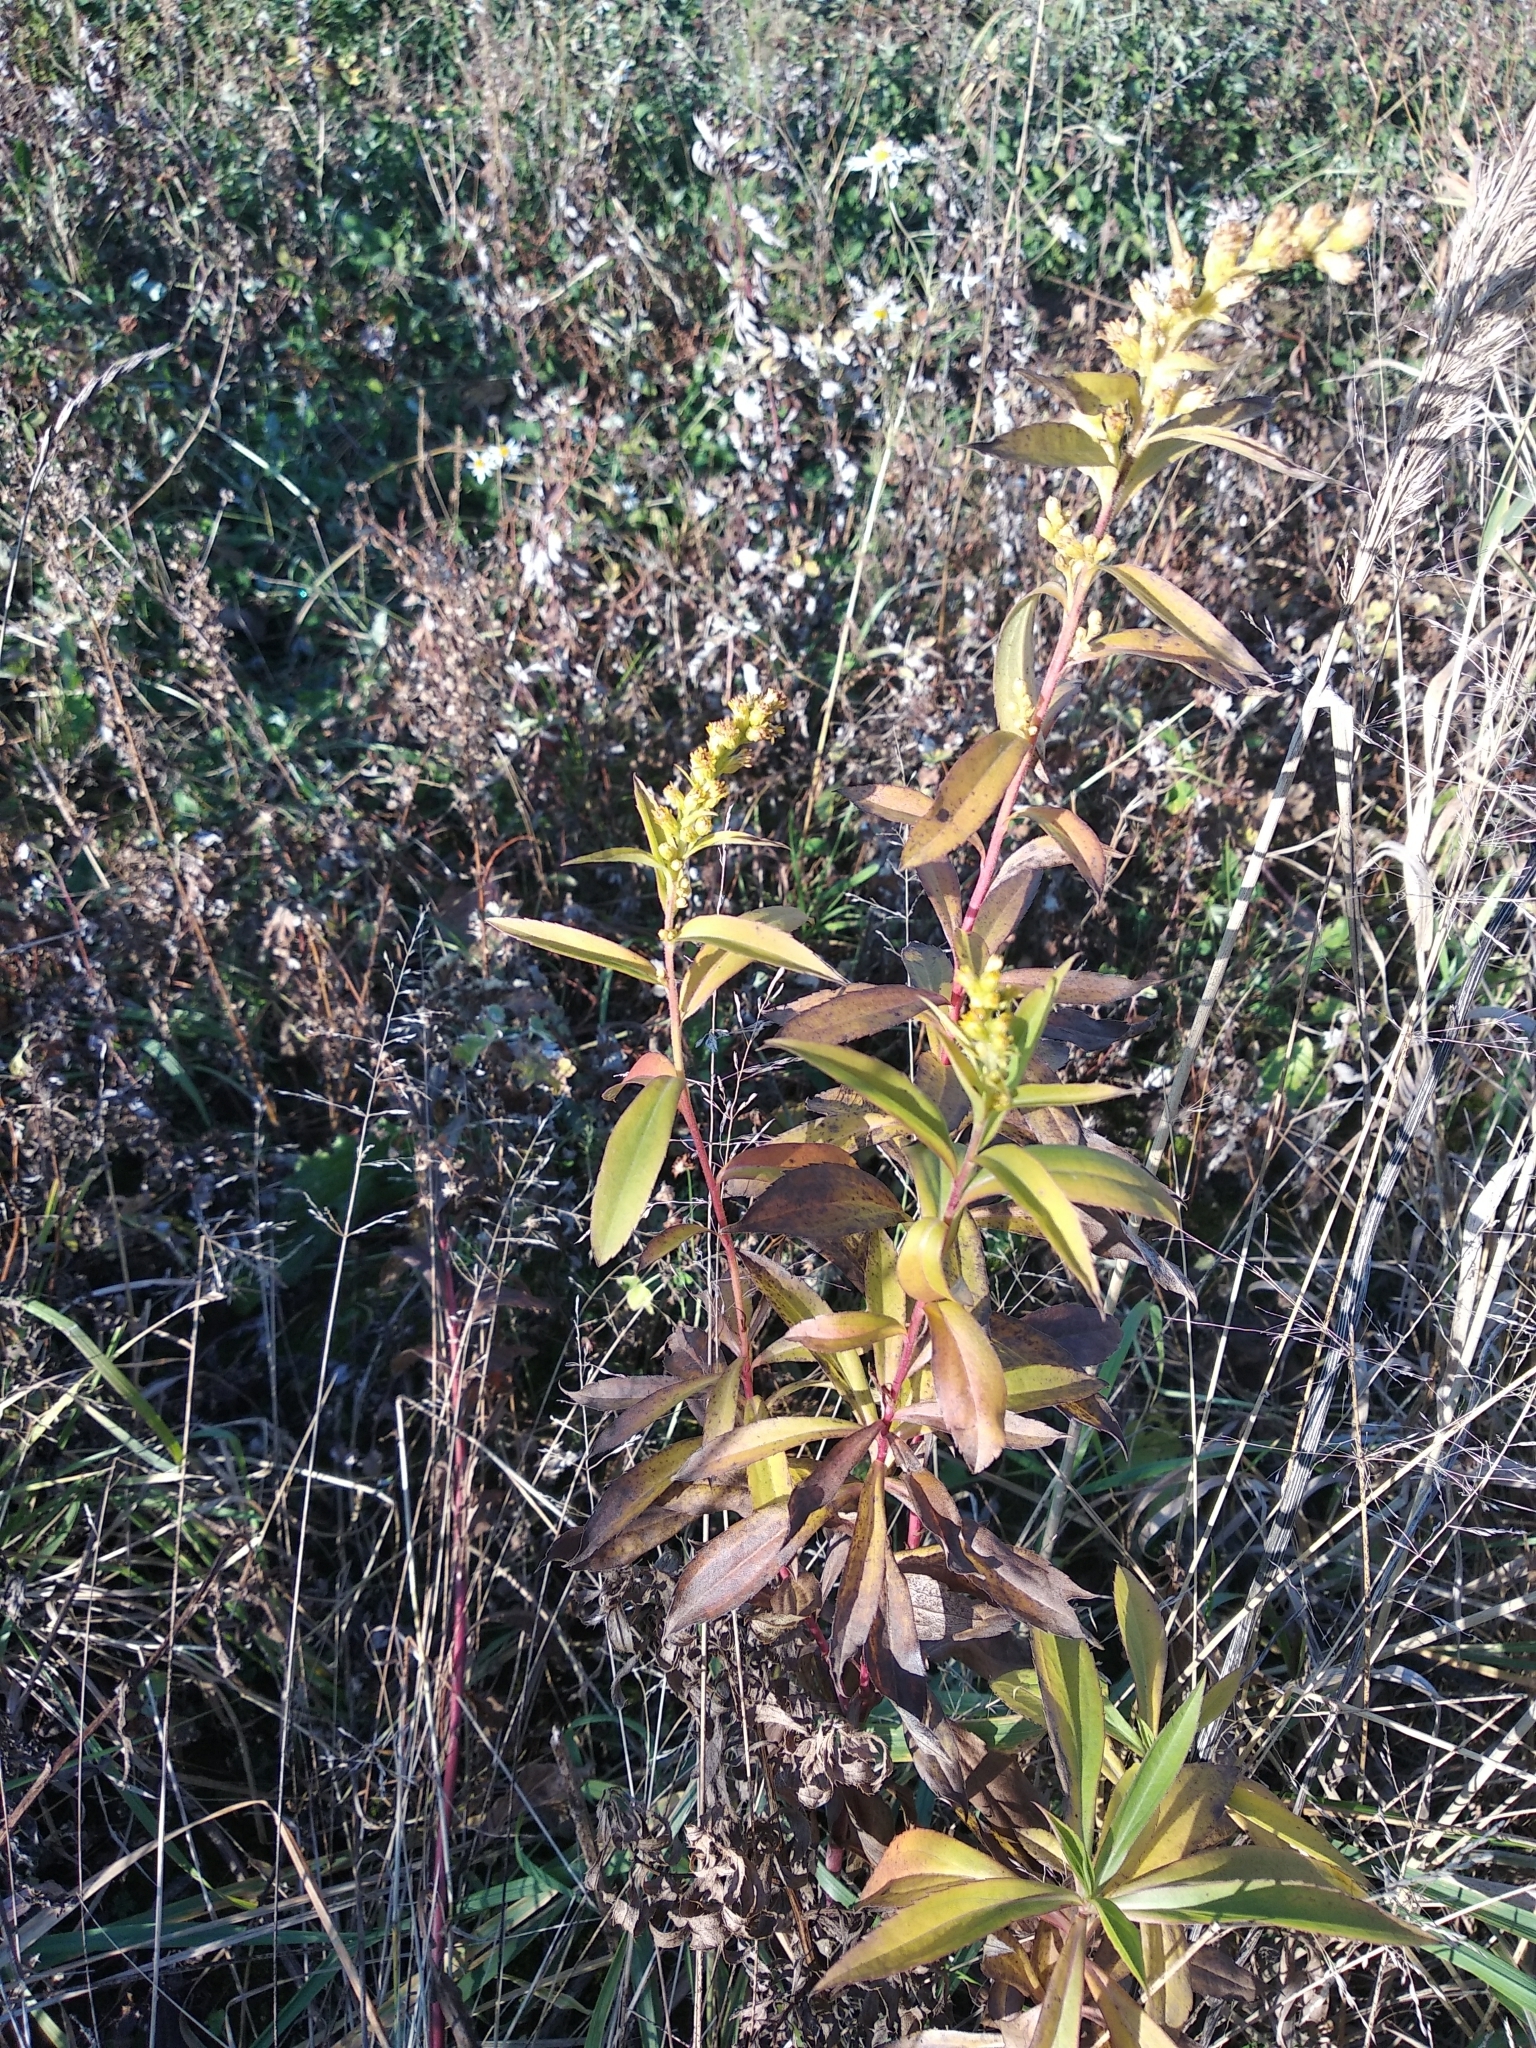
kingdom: Plantae
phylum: Tracheophyta
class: Magnoliopsida
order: Asterales
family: Asteraceae
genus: Solidago
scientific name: Solidago gigantea
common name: Giant goldenrod
